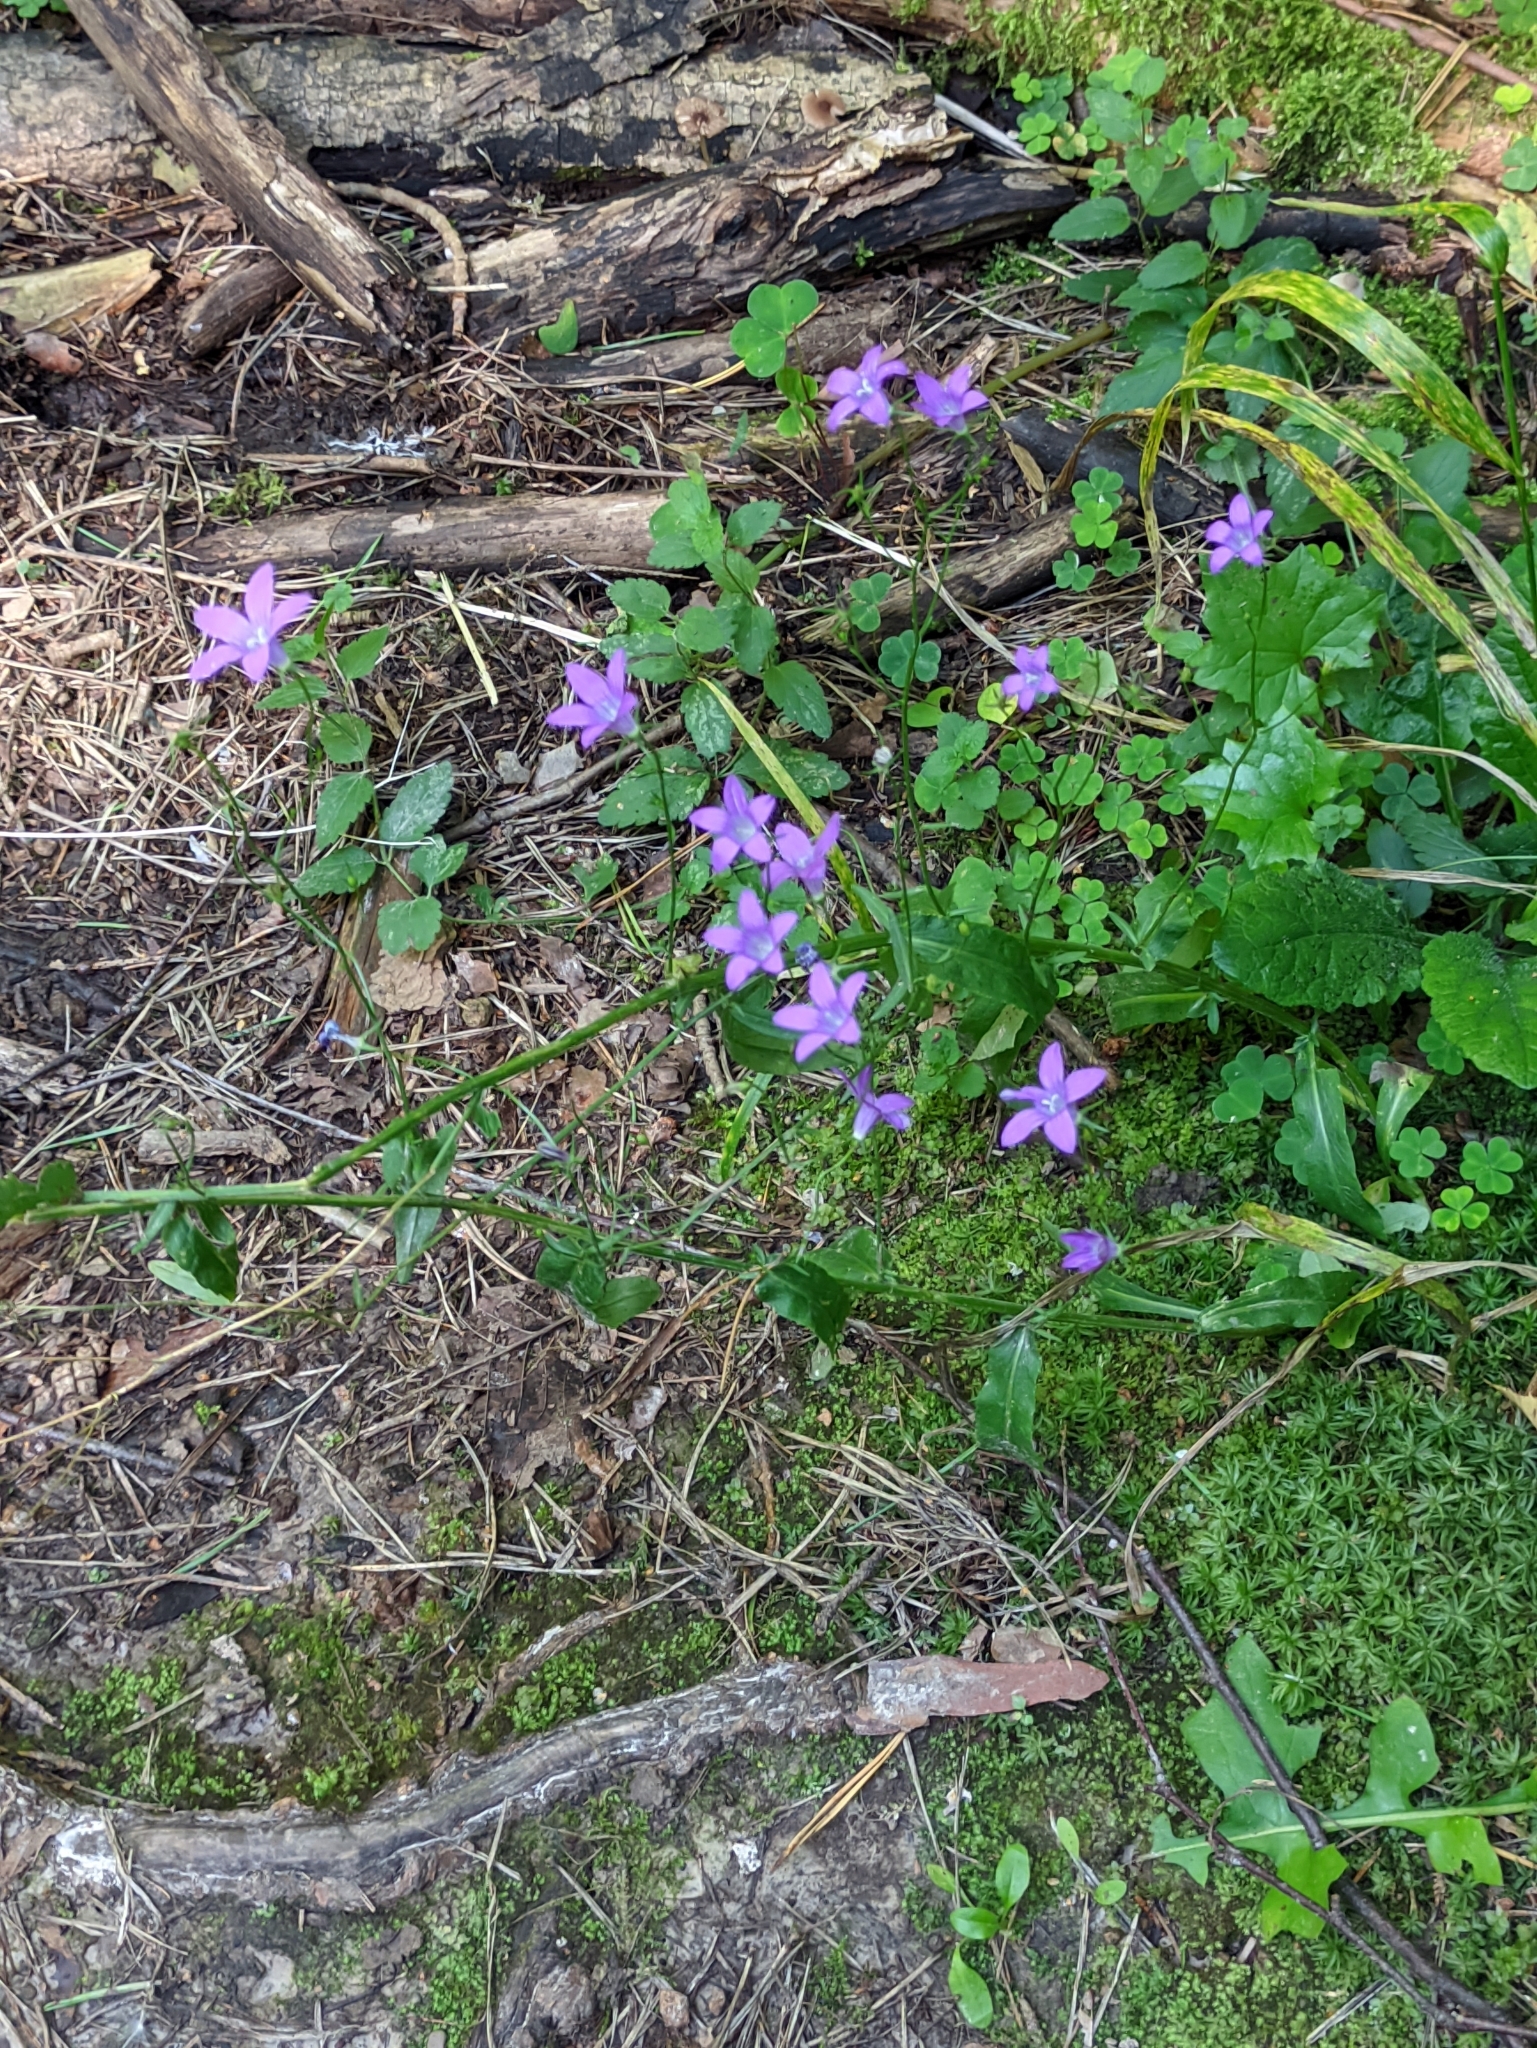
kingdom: Plantae
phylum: Tracheophyta
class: Magnoliopsida
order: Asterales
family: Campanulaceae
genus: Campanula
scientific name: Campanula patula
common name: Spreading bellflower
